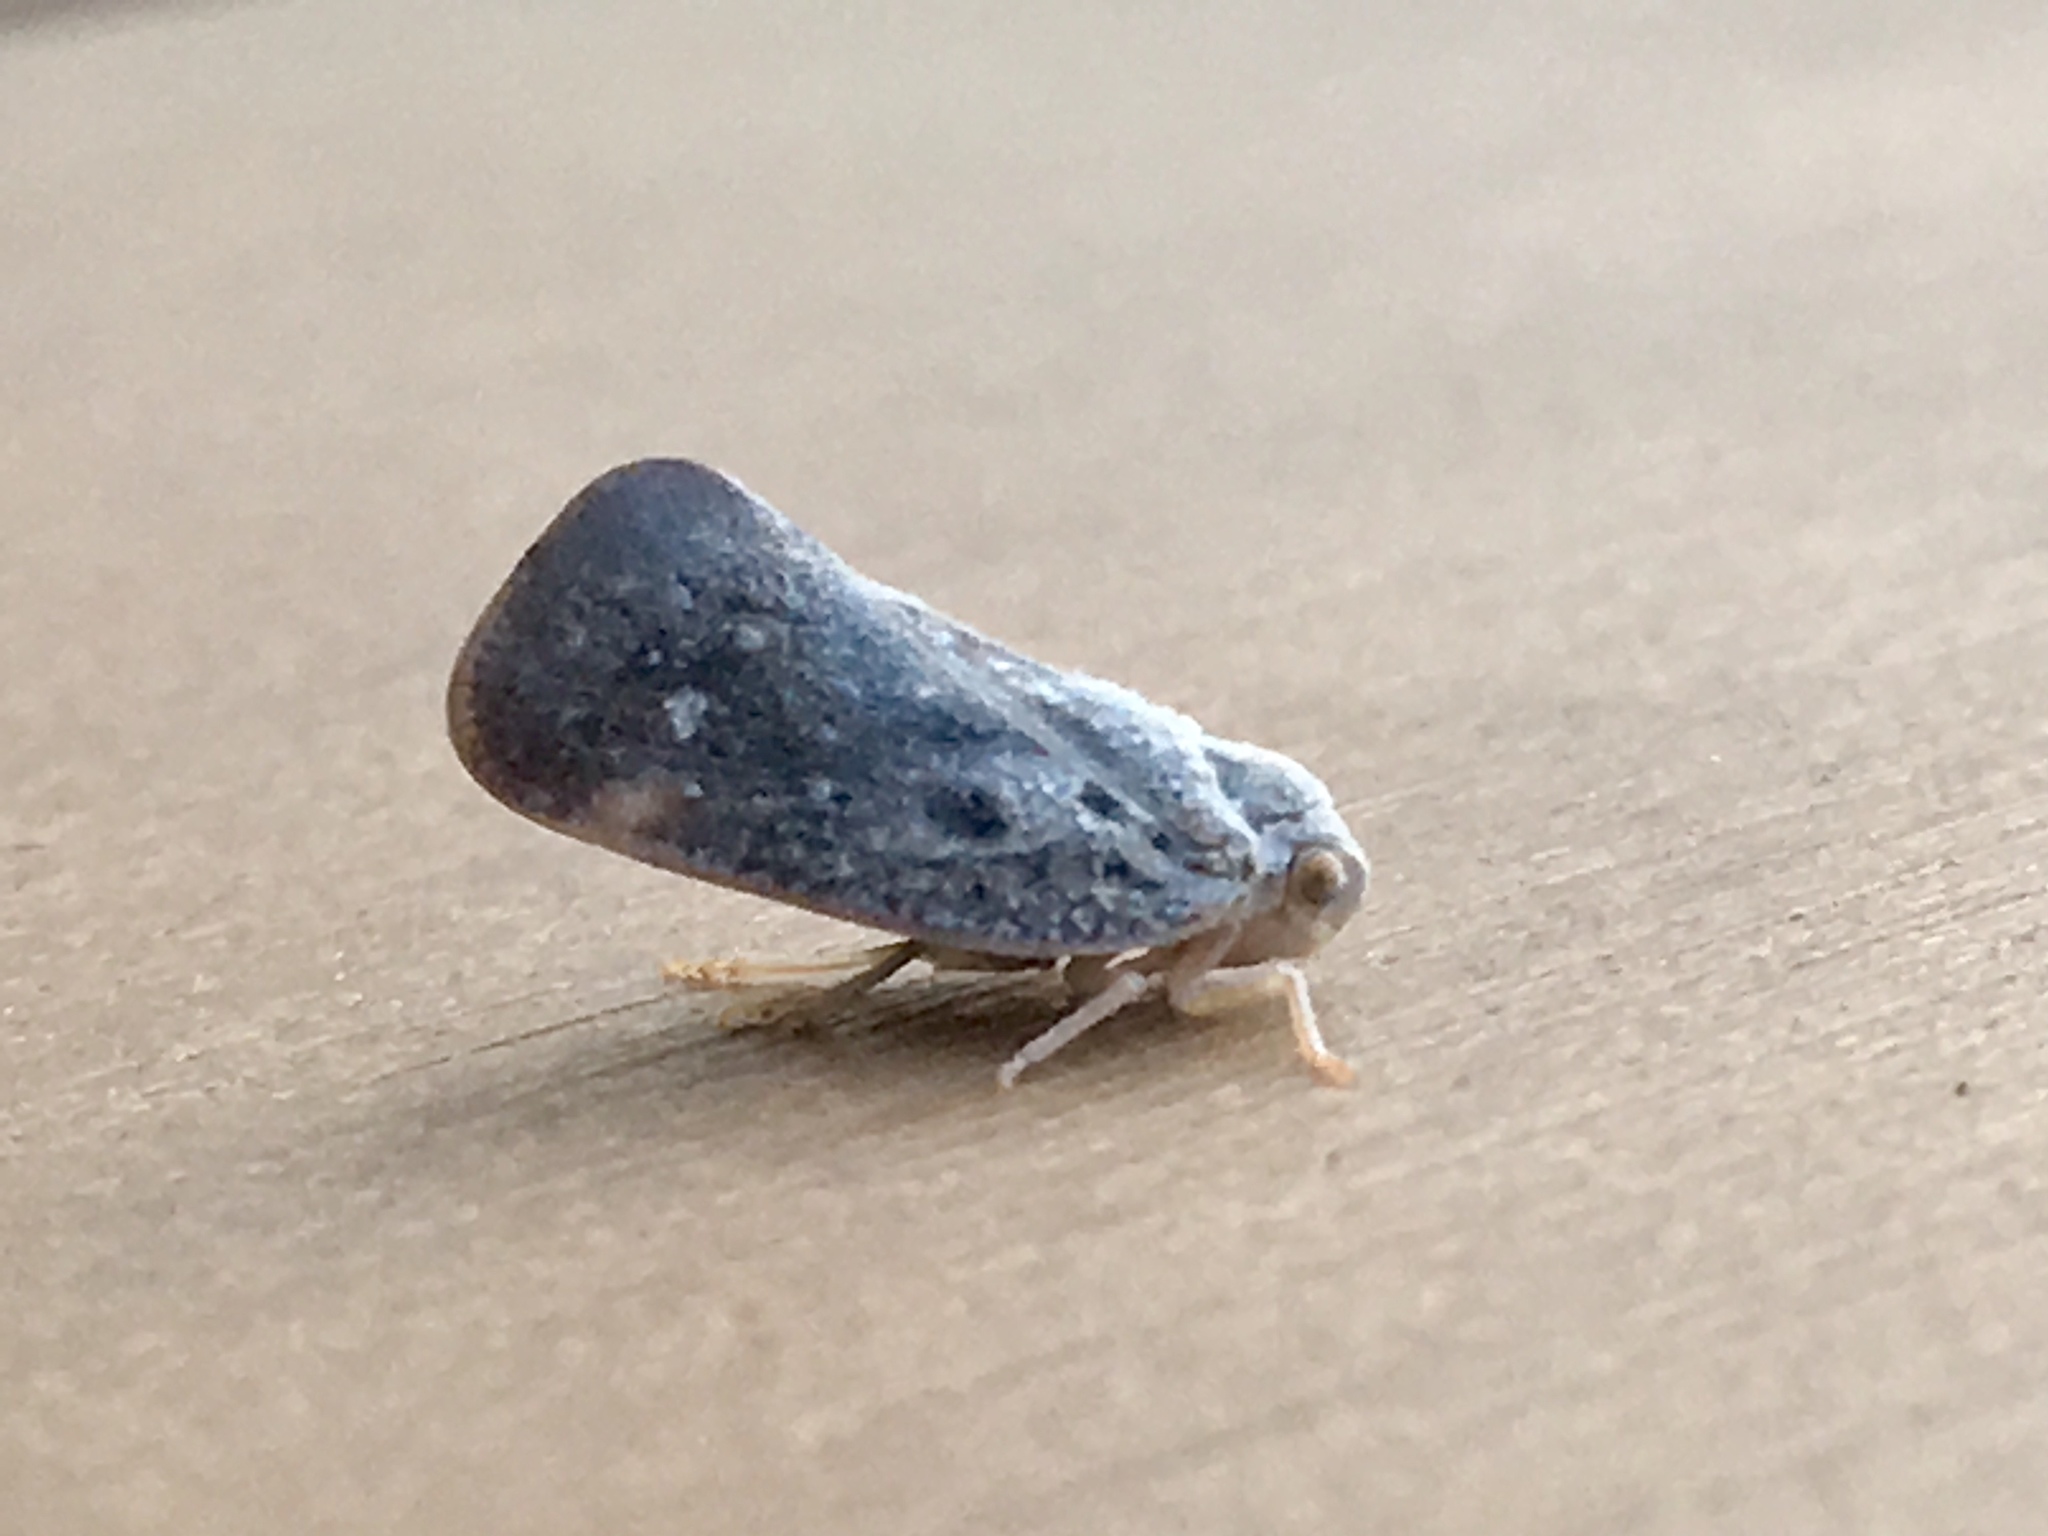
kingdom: Animalia
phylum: Arthropoda
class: Insecta
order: Hemiptera
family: Flatidae
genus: Metcalfa
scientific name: Metcalfa pruinosa
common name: Citrus flatid planthopper
